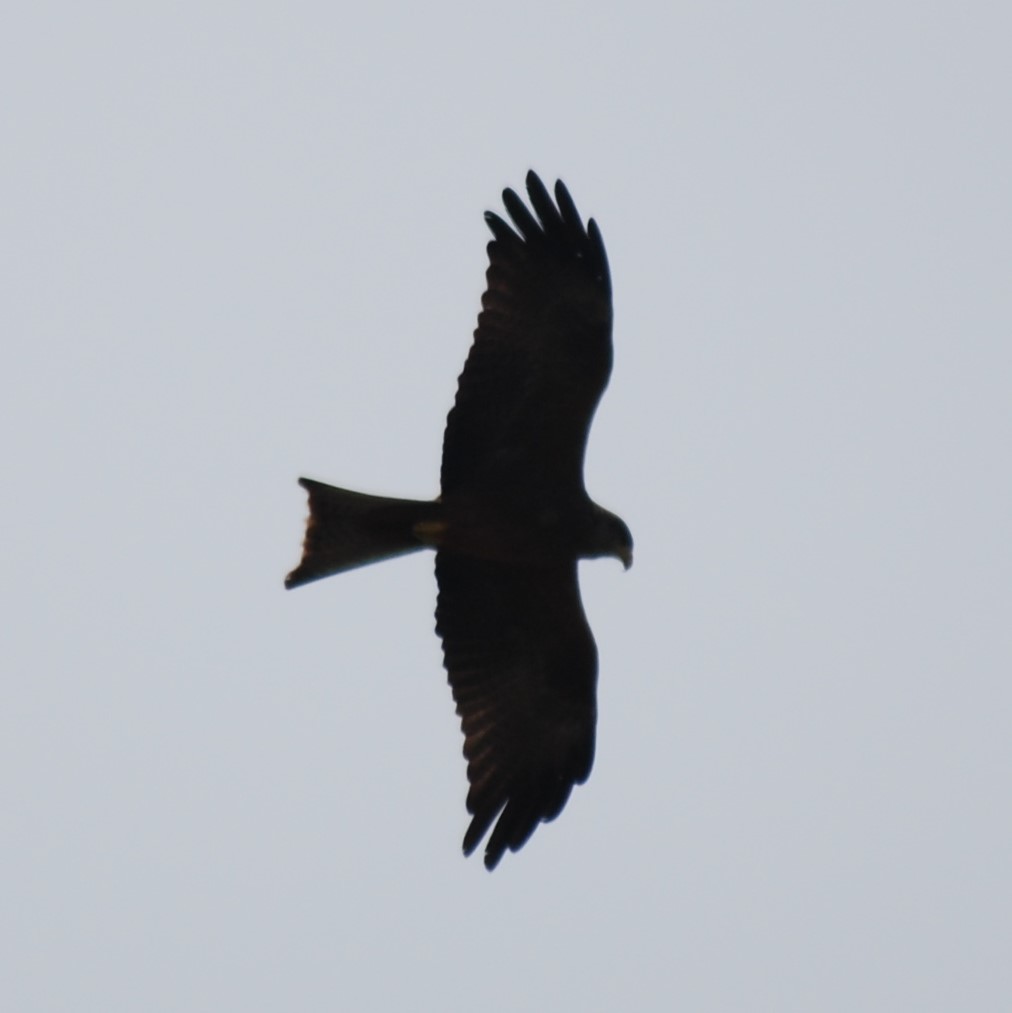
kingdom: Animalia
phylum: Chordata
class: Aves
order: Accipitriformes
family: Accipitridae
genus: Milvus
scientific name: Milvus migrans
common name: Black kite
